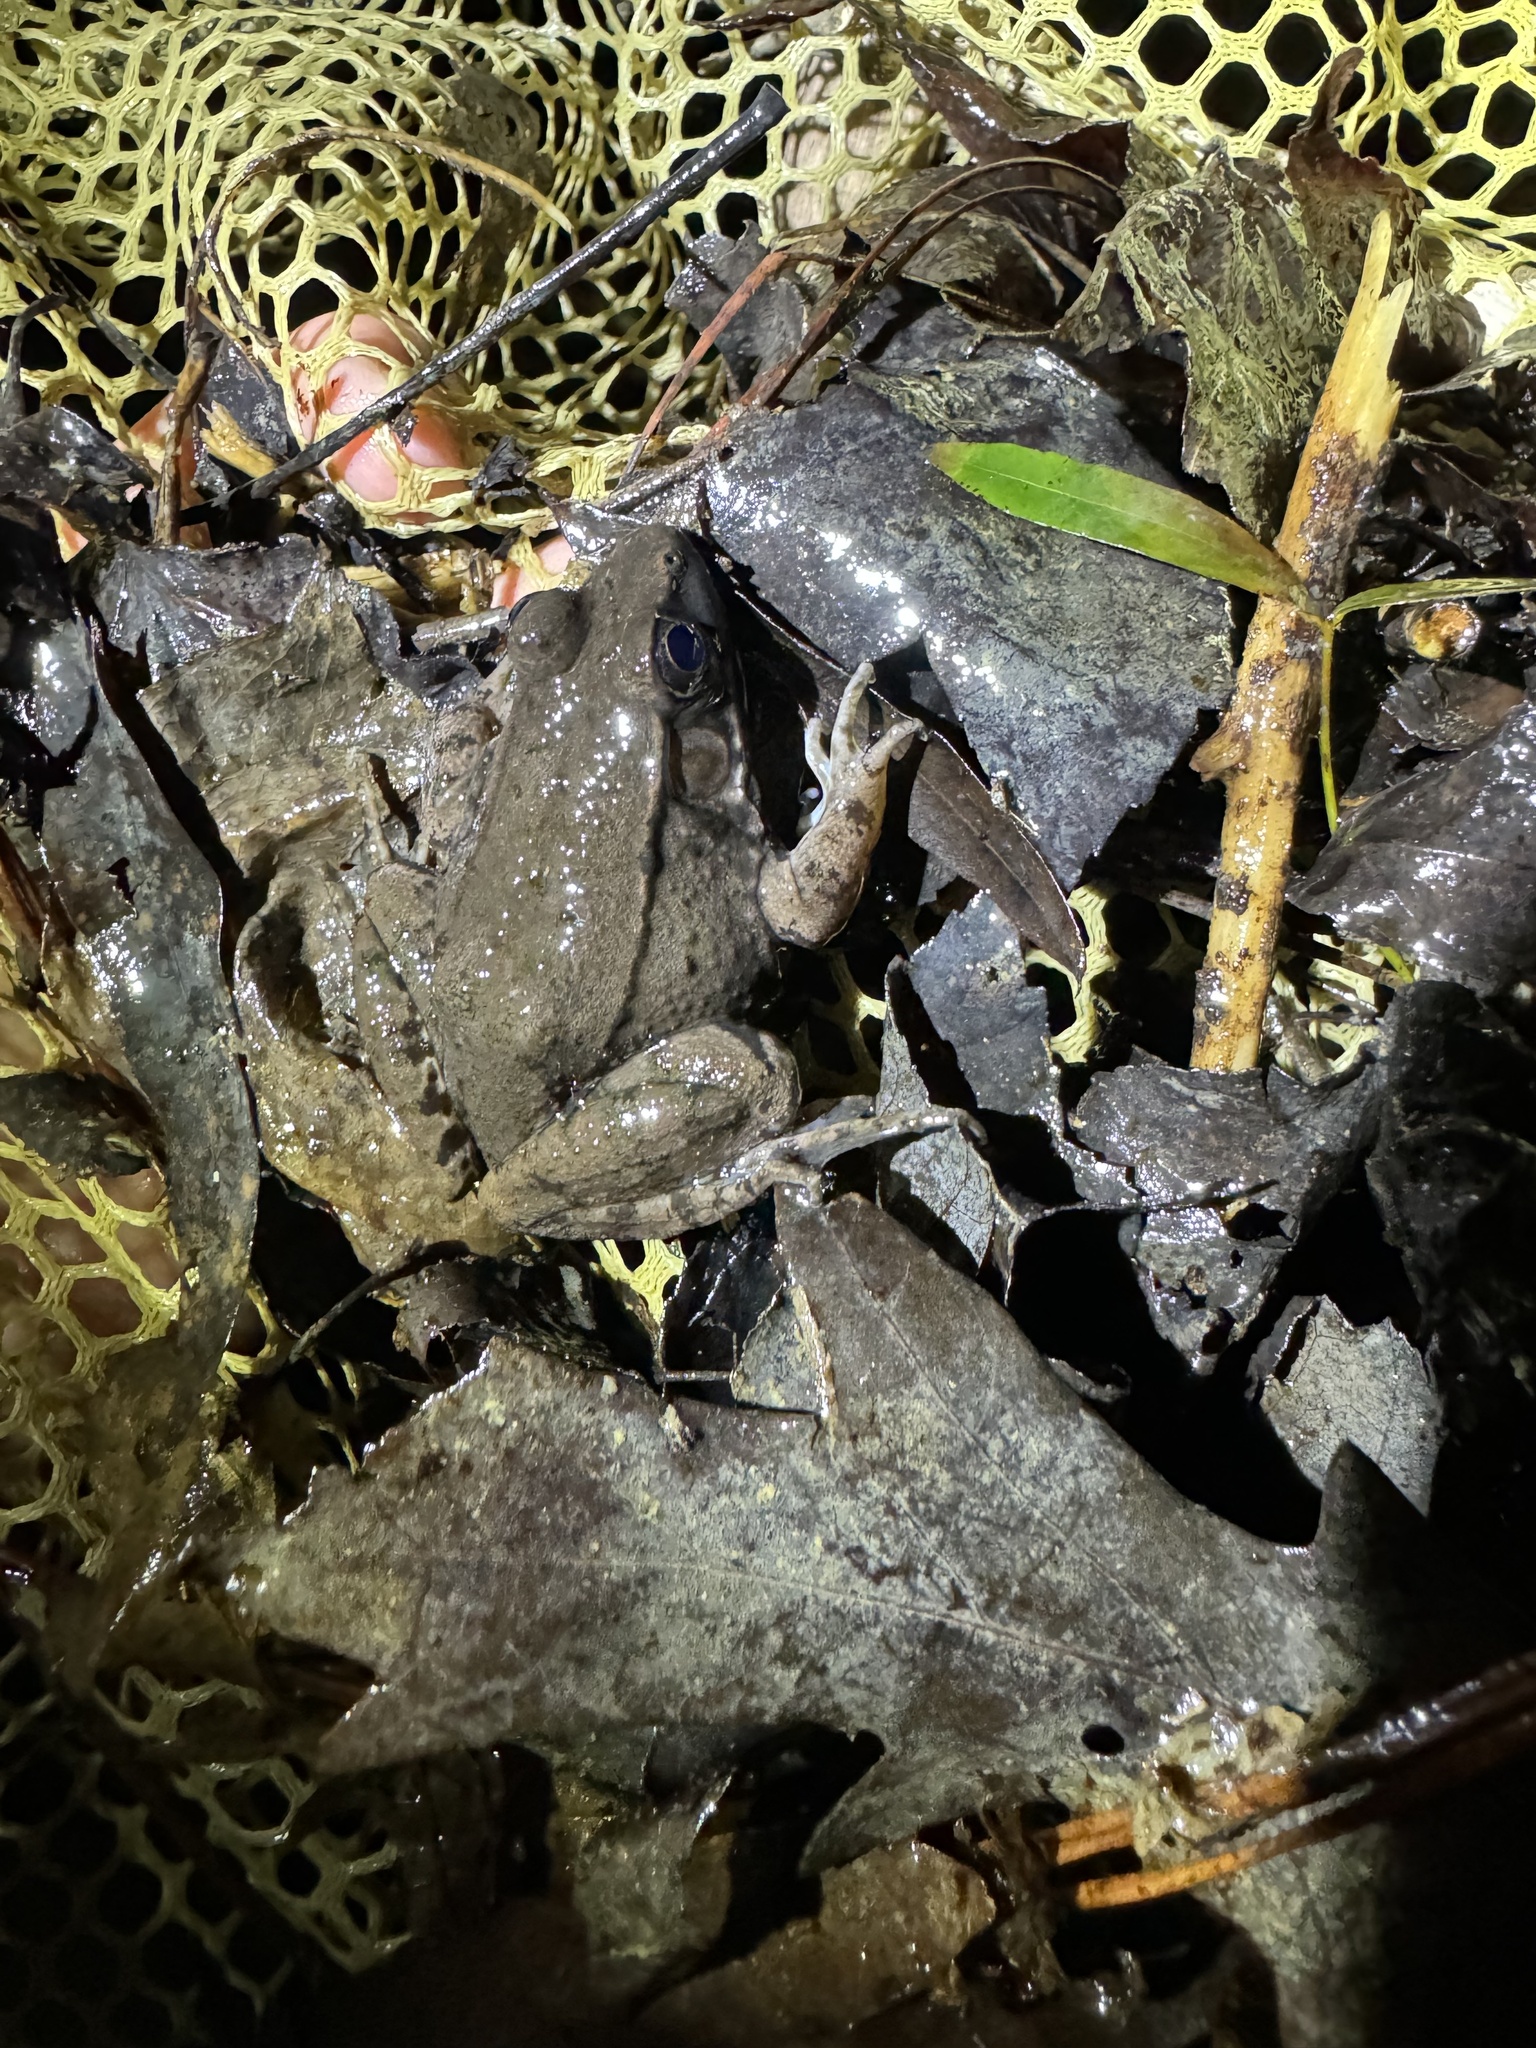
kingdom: Animalia
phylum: Chordata
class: Amphibia
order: Anura
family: Ranidae
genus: Lithobates
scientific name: Lithobates clamitans
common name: Green frog
